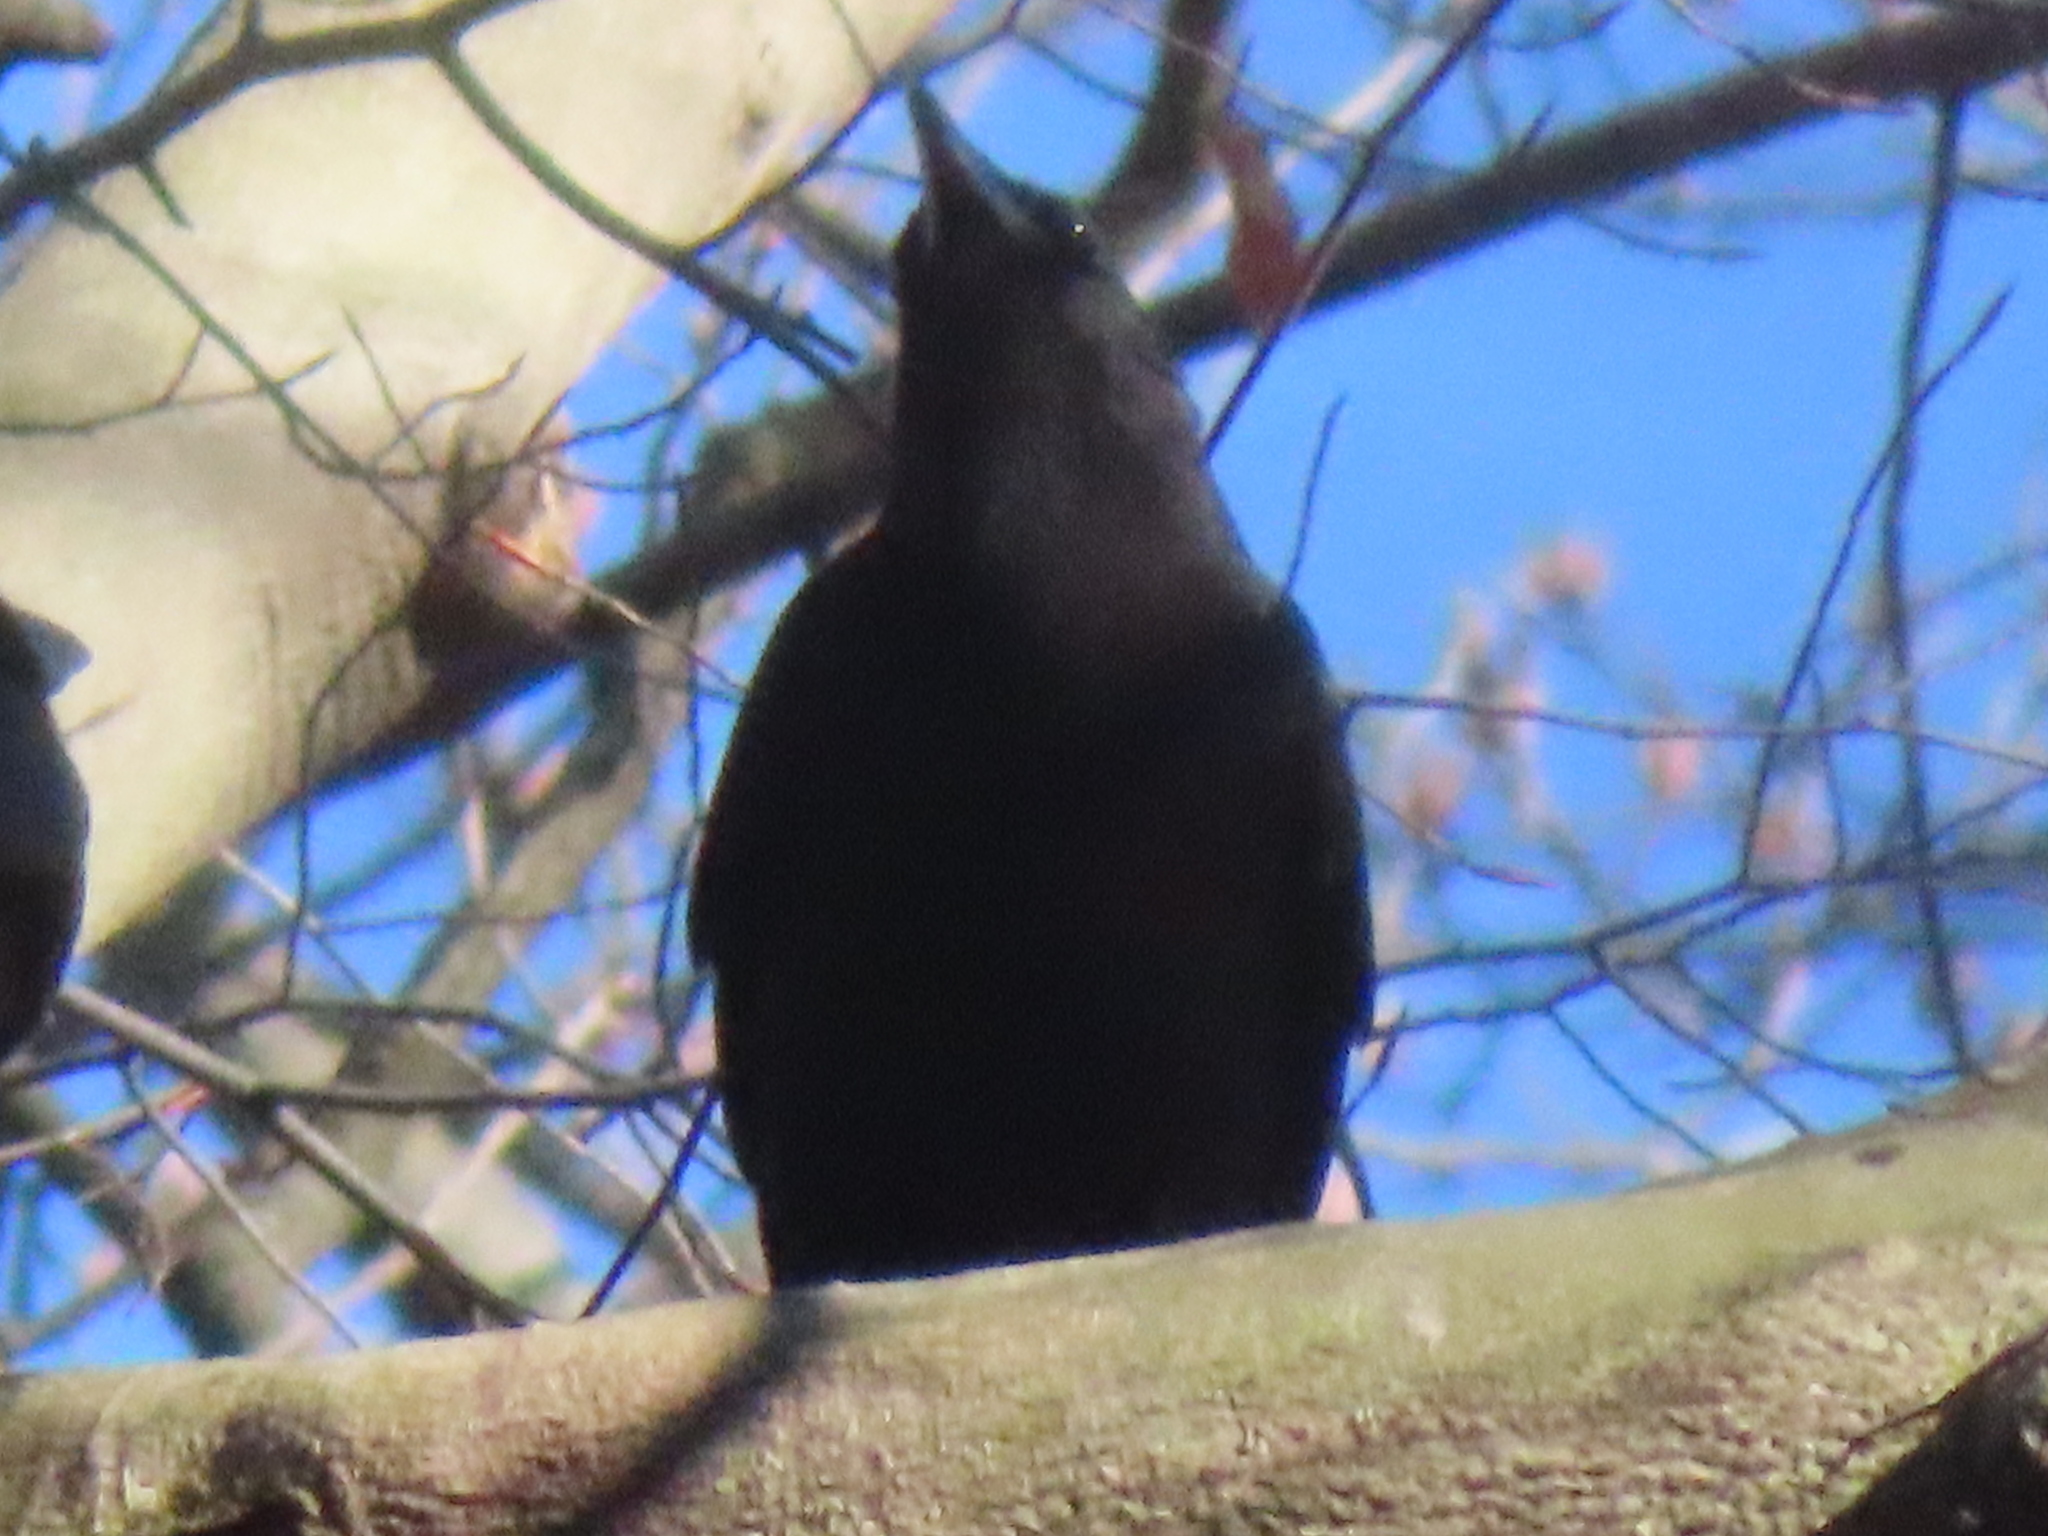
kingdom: Animalia
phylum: Chordata
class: Aves
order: Passeriformes
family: Corvidae
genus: Corvus
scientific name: Corvus brachyrhynchos
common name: American crow
